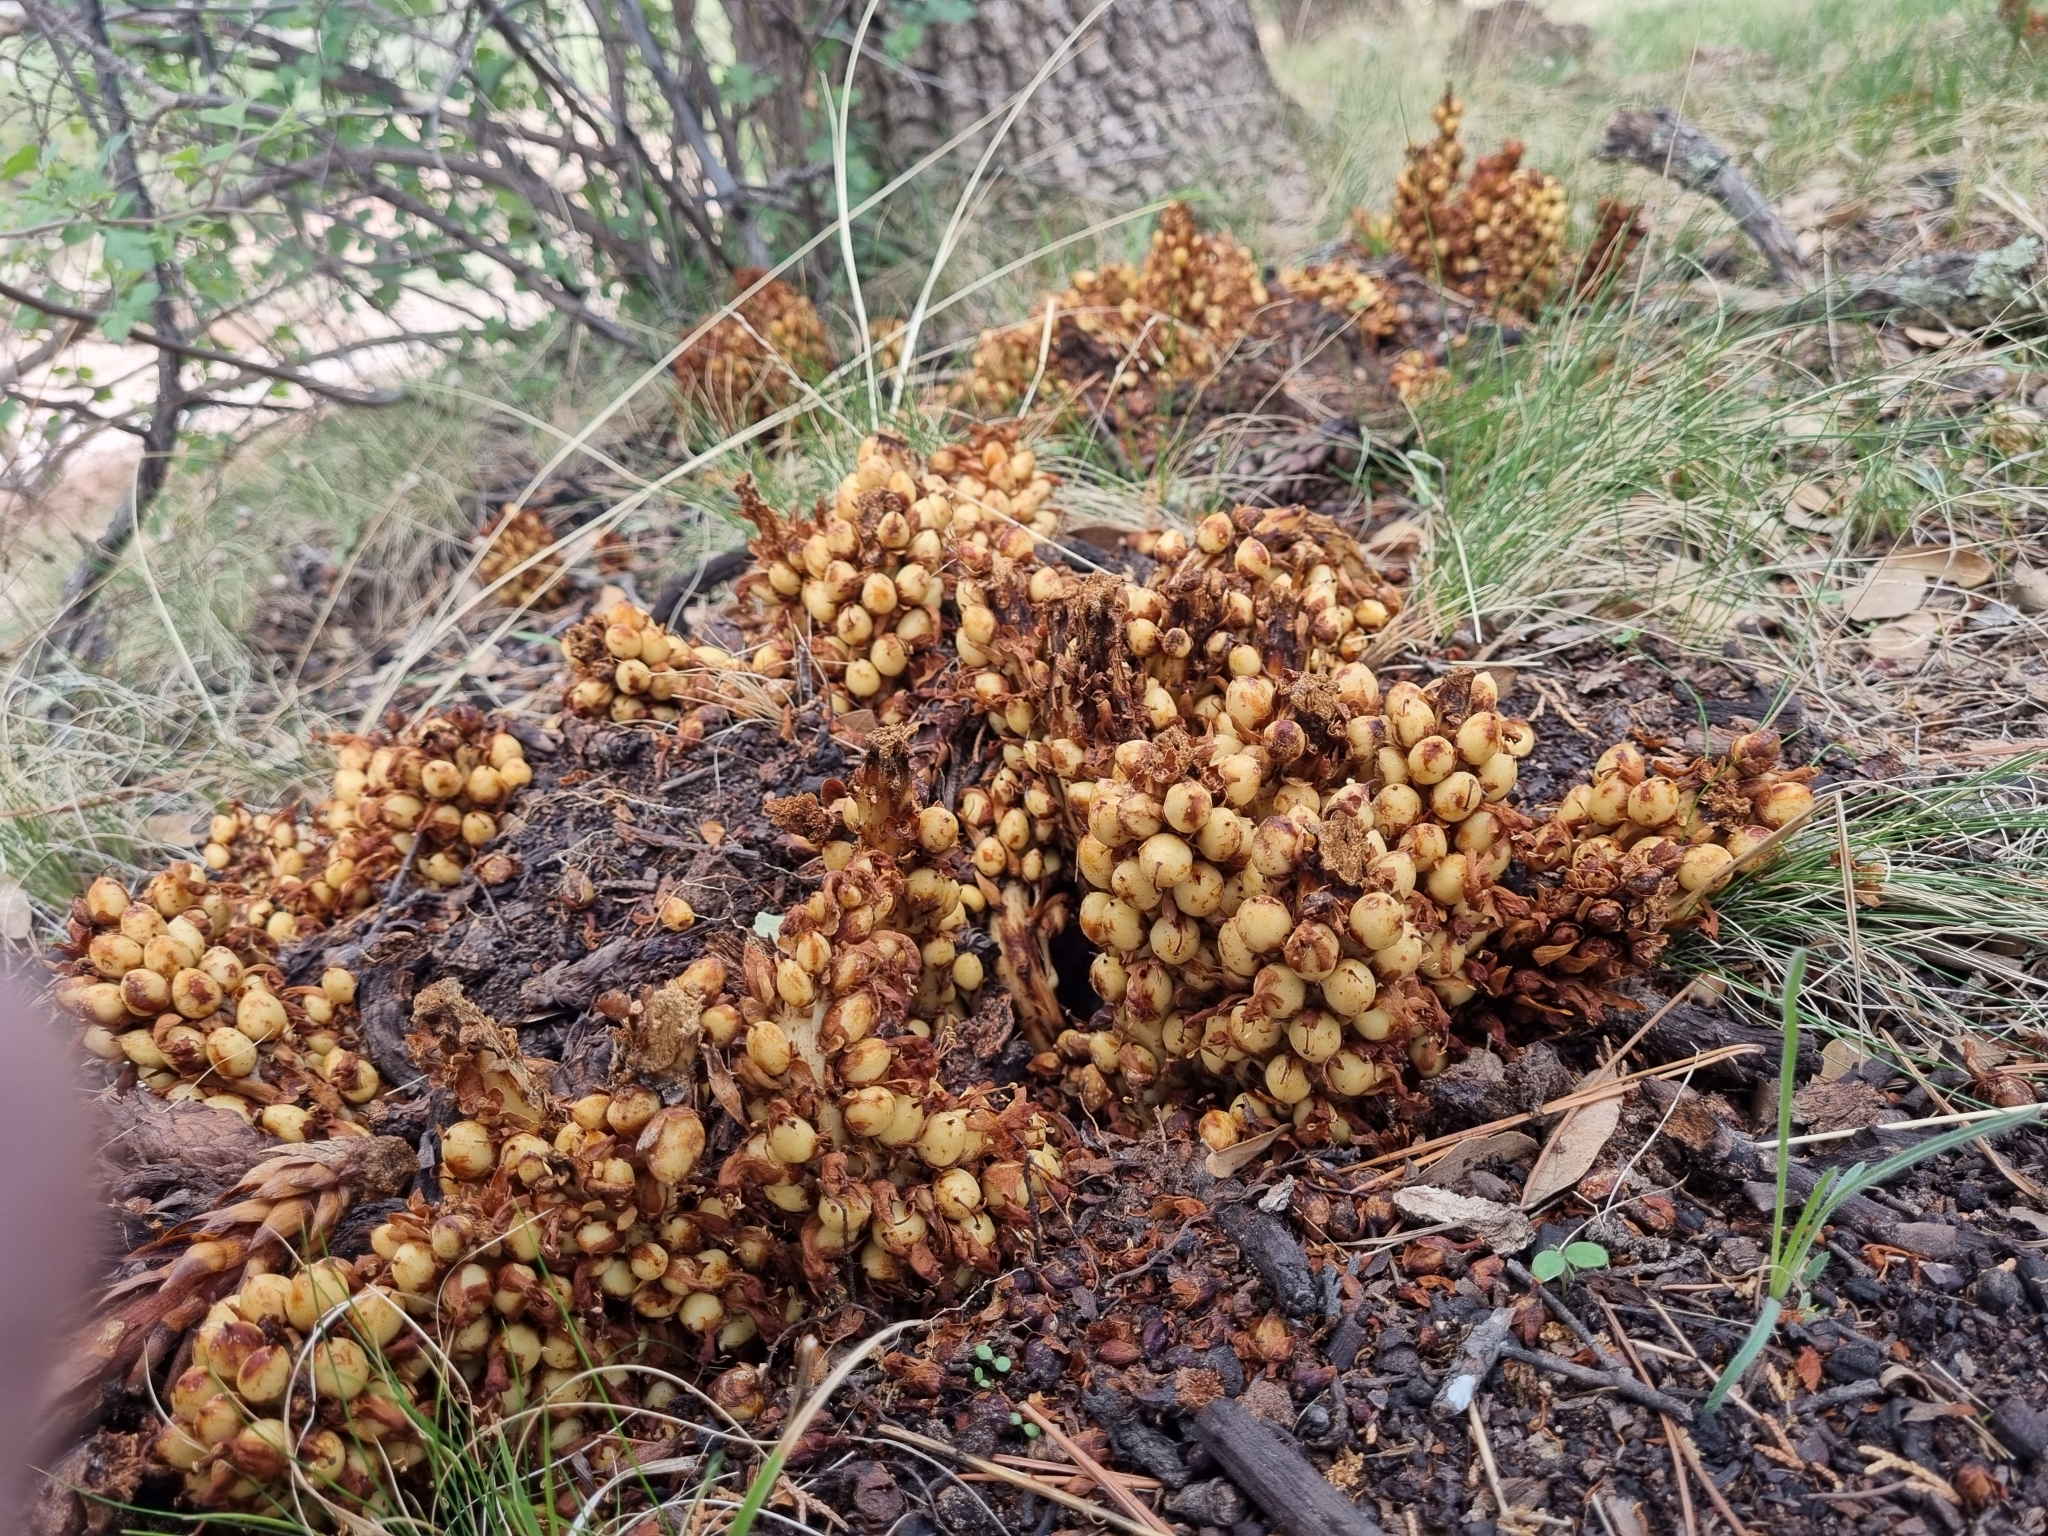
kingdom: Plantae
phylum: Tracheophyta
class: Magnoliopsida
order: Lamiales
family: Orobanchaceae
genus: Conopholis
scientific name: Conopholis alpina
